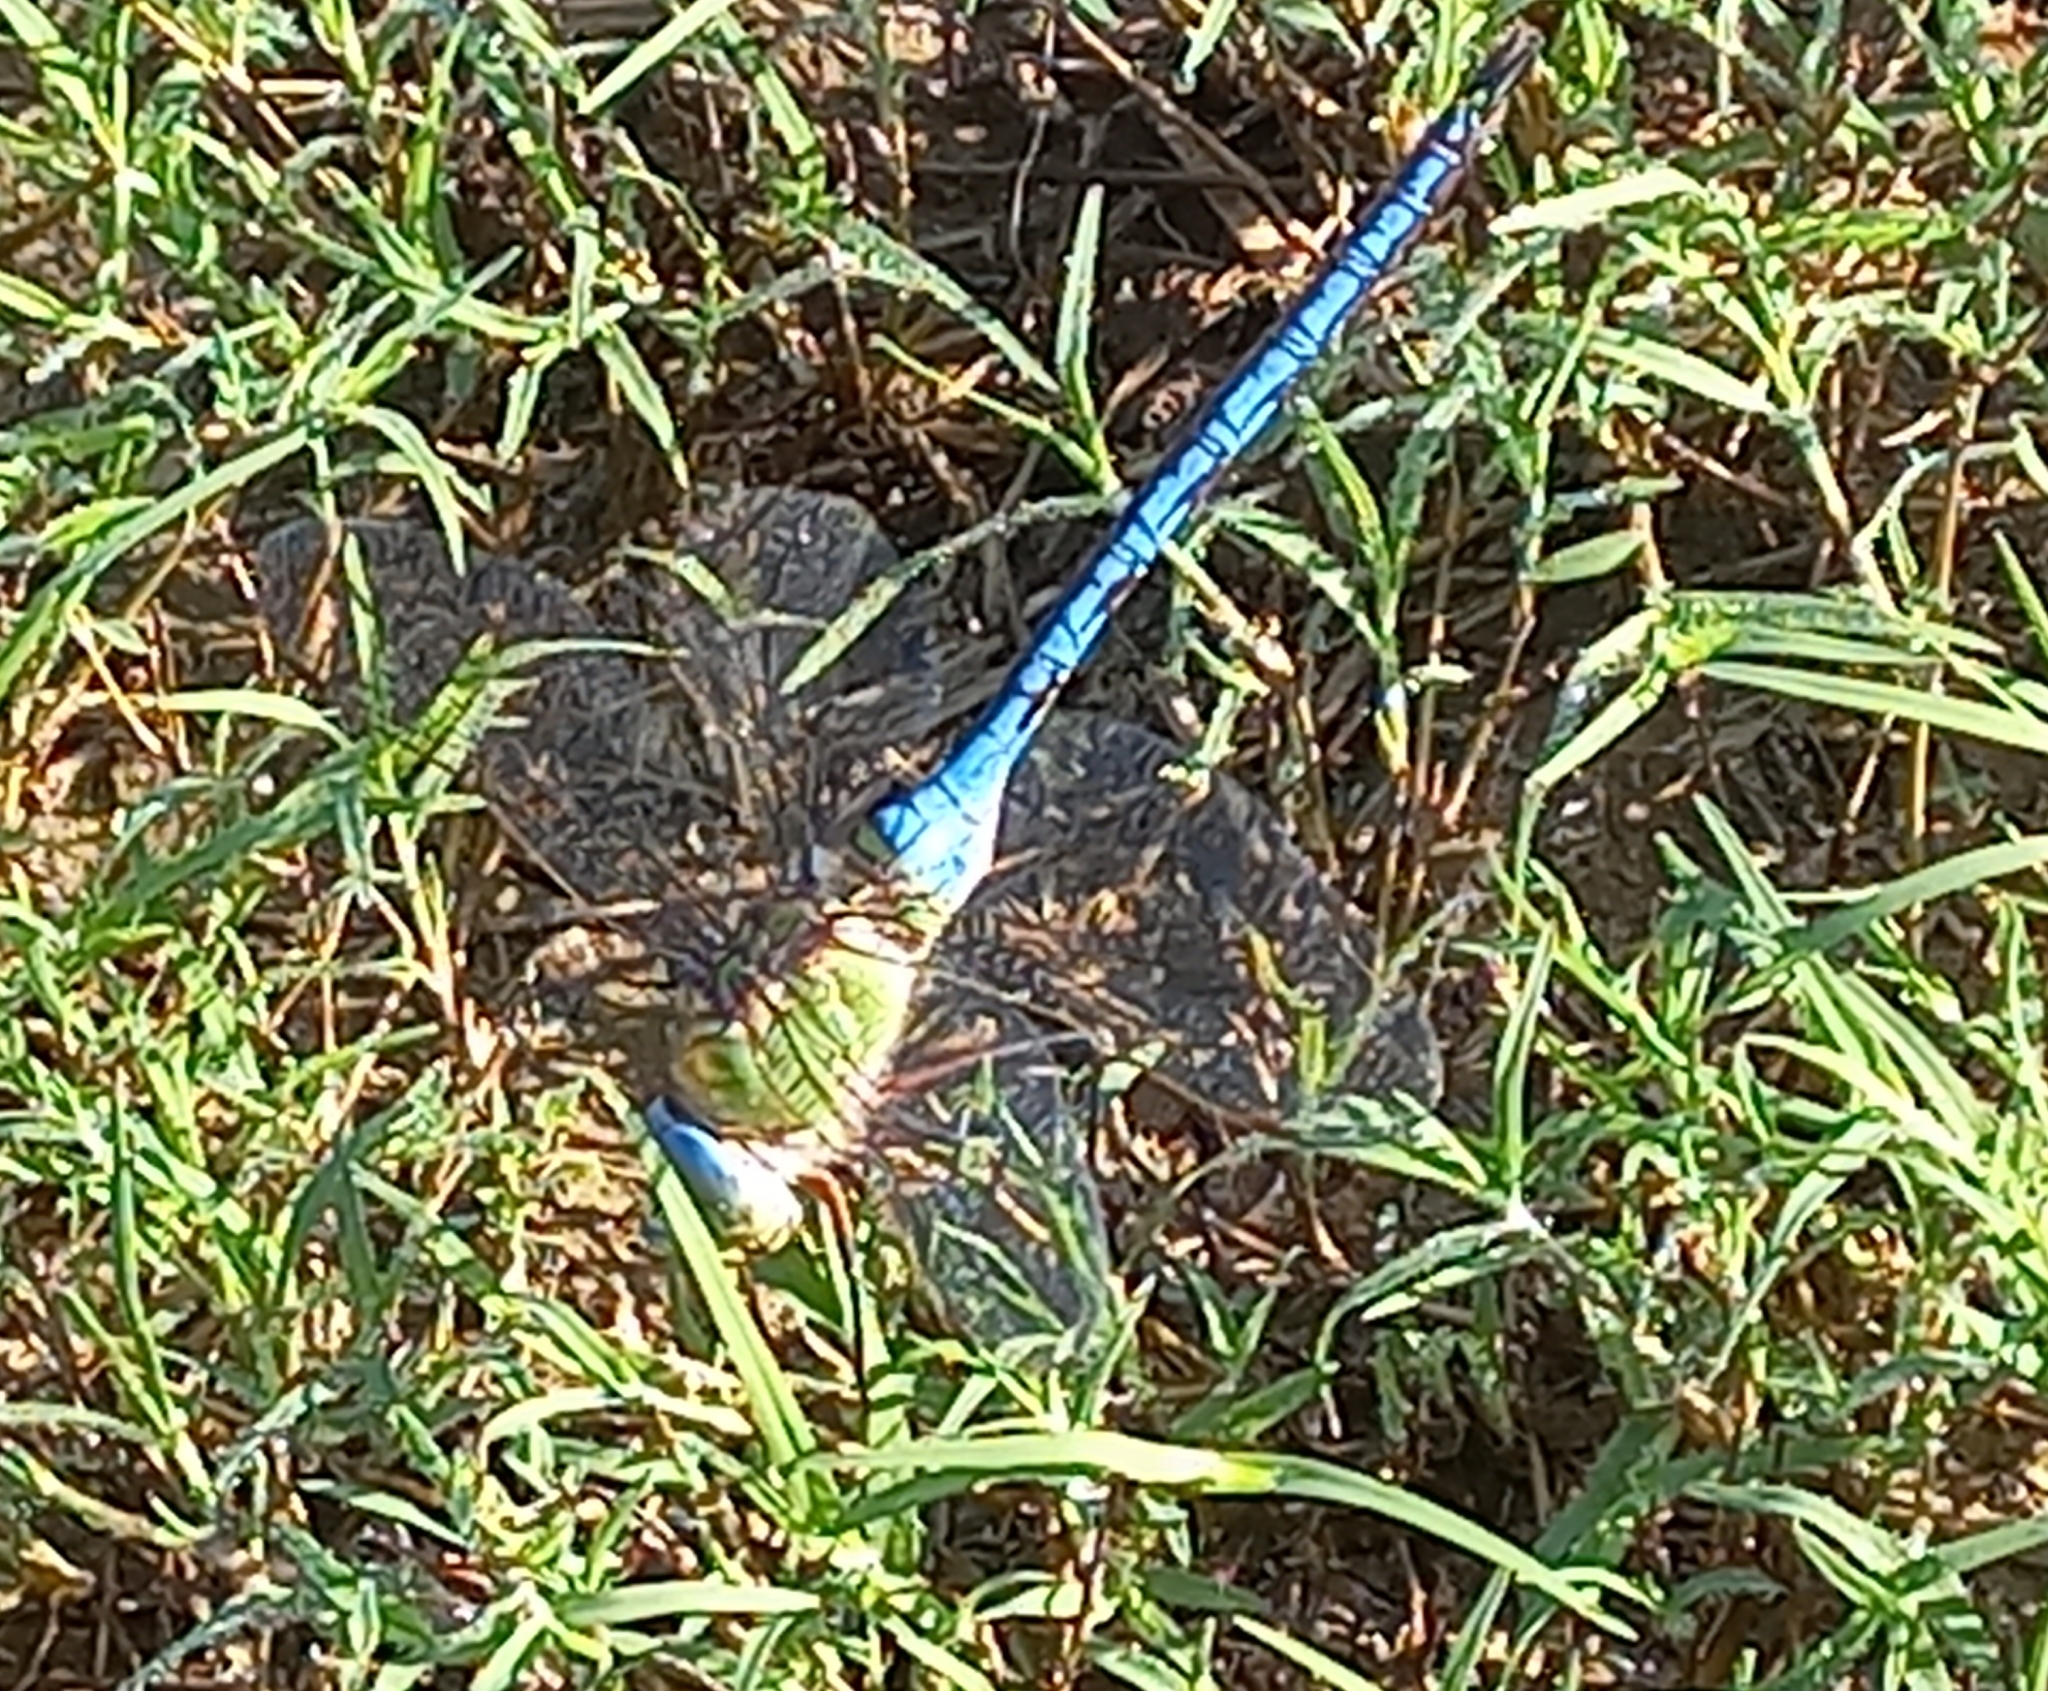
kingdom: Animalia
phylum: Arthropoda
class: Insecta
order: Odonata
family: Aeshnidae
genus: Anax
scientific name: Anax imperator
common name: Emperor dragonfly
